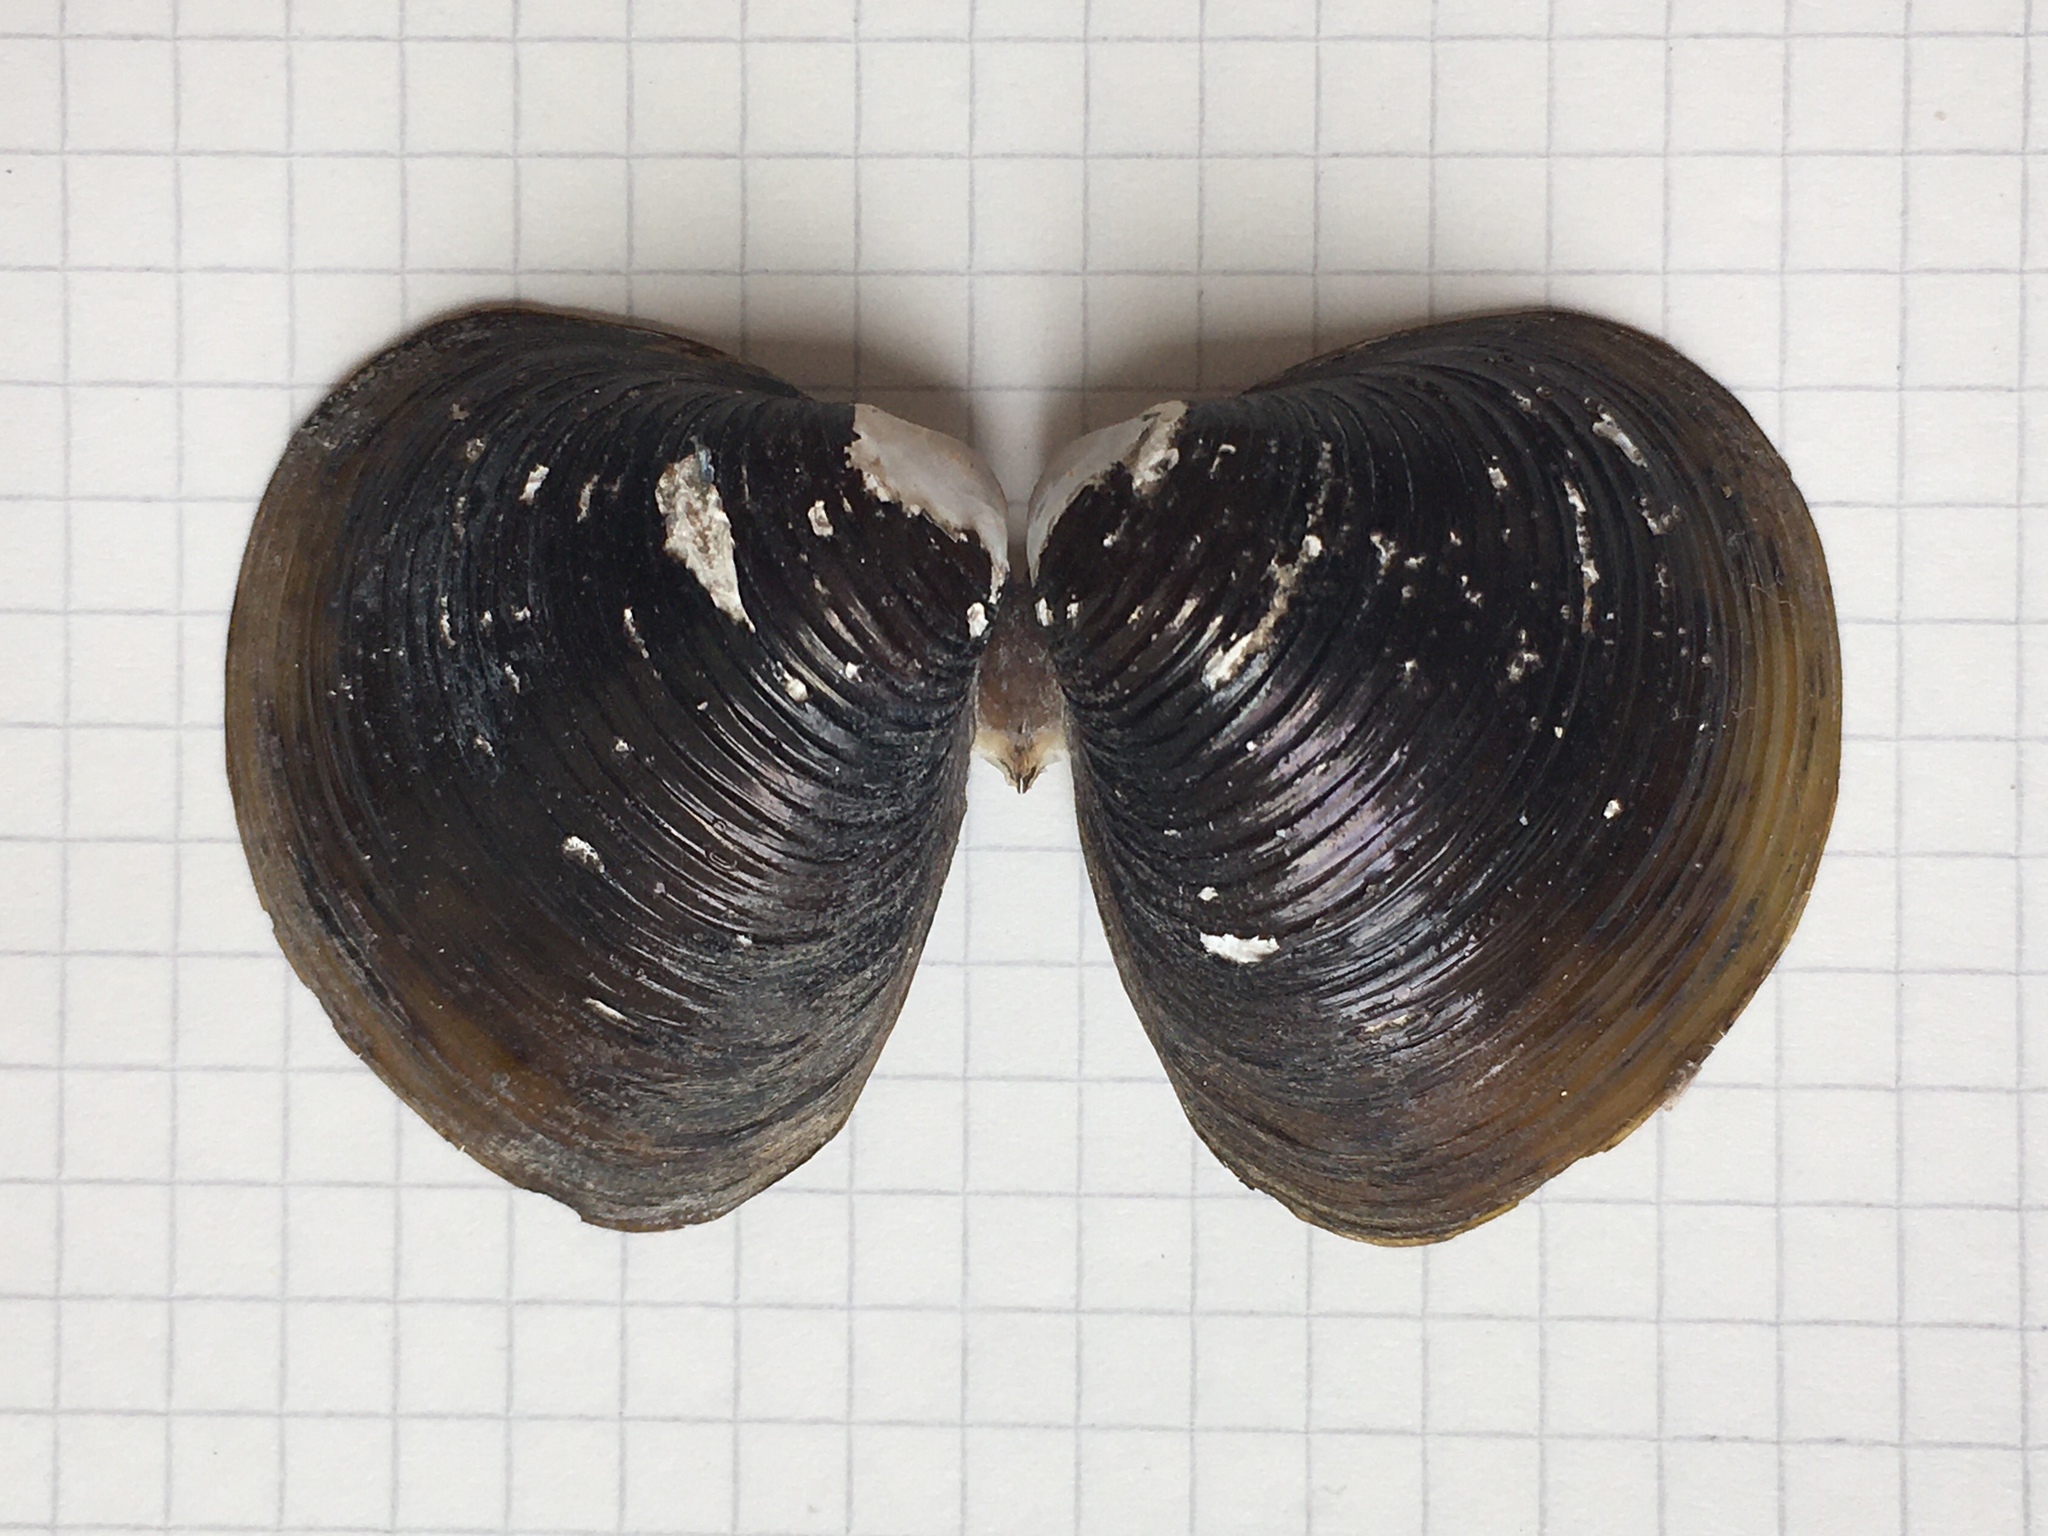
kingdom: Animalia
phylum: Mollusca
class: Bivalvia
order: Venerida
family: Cyrenidae
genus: Corbicula
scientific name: Corbicula fluminea
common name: Asian clam
